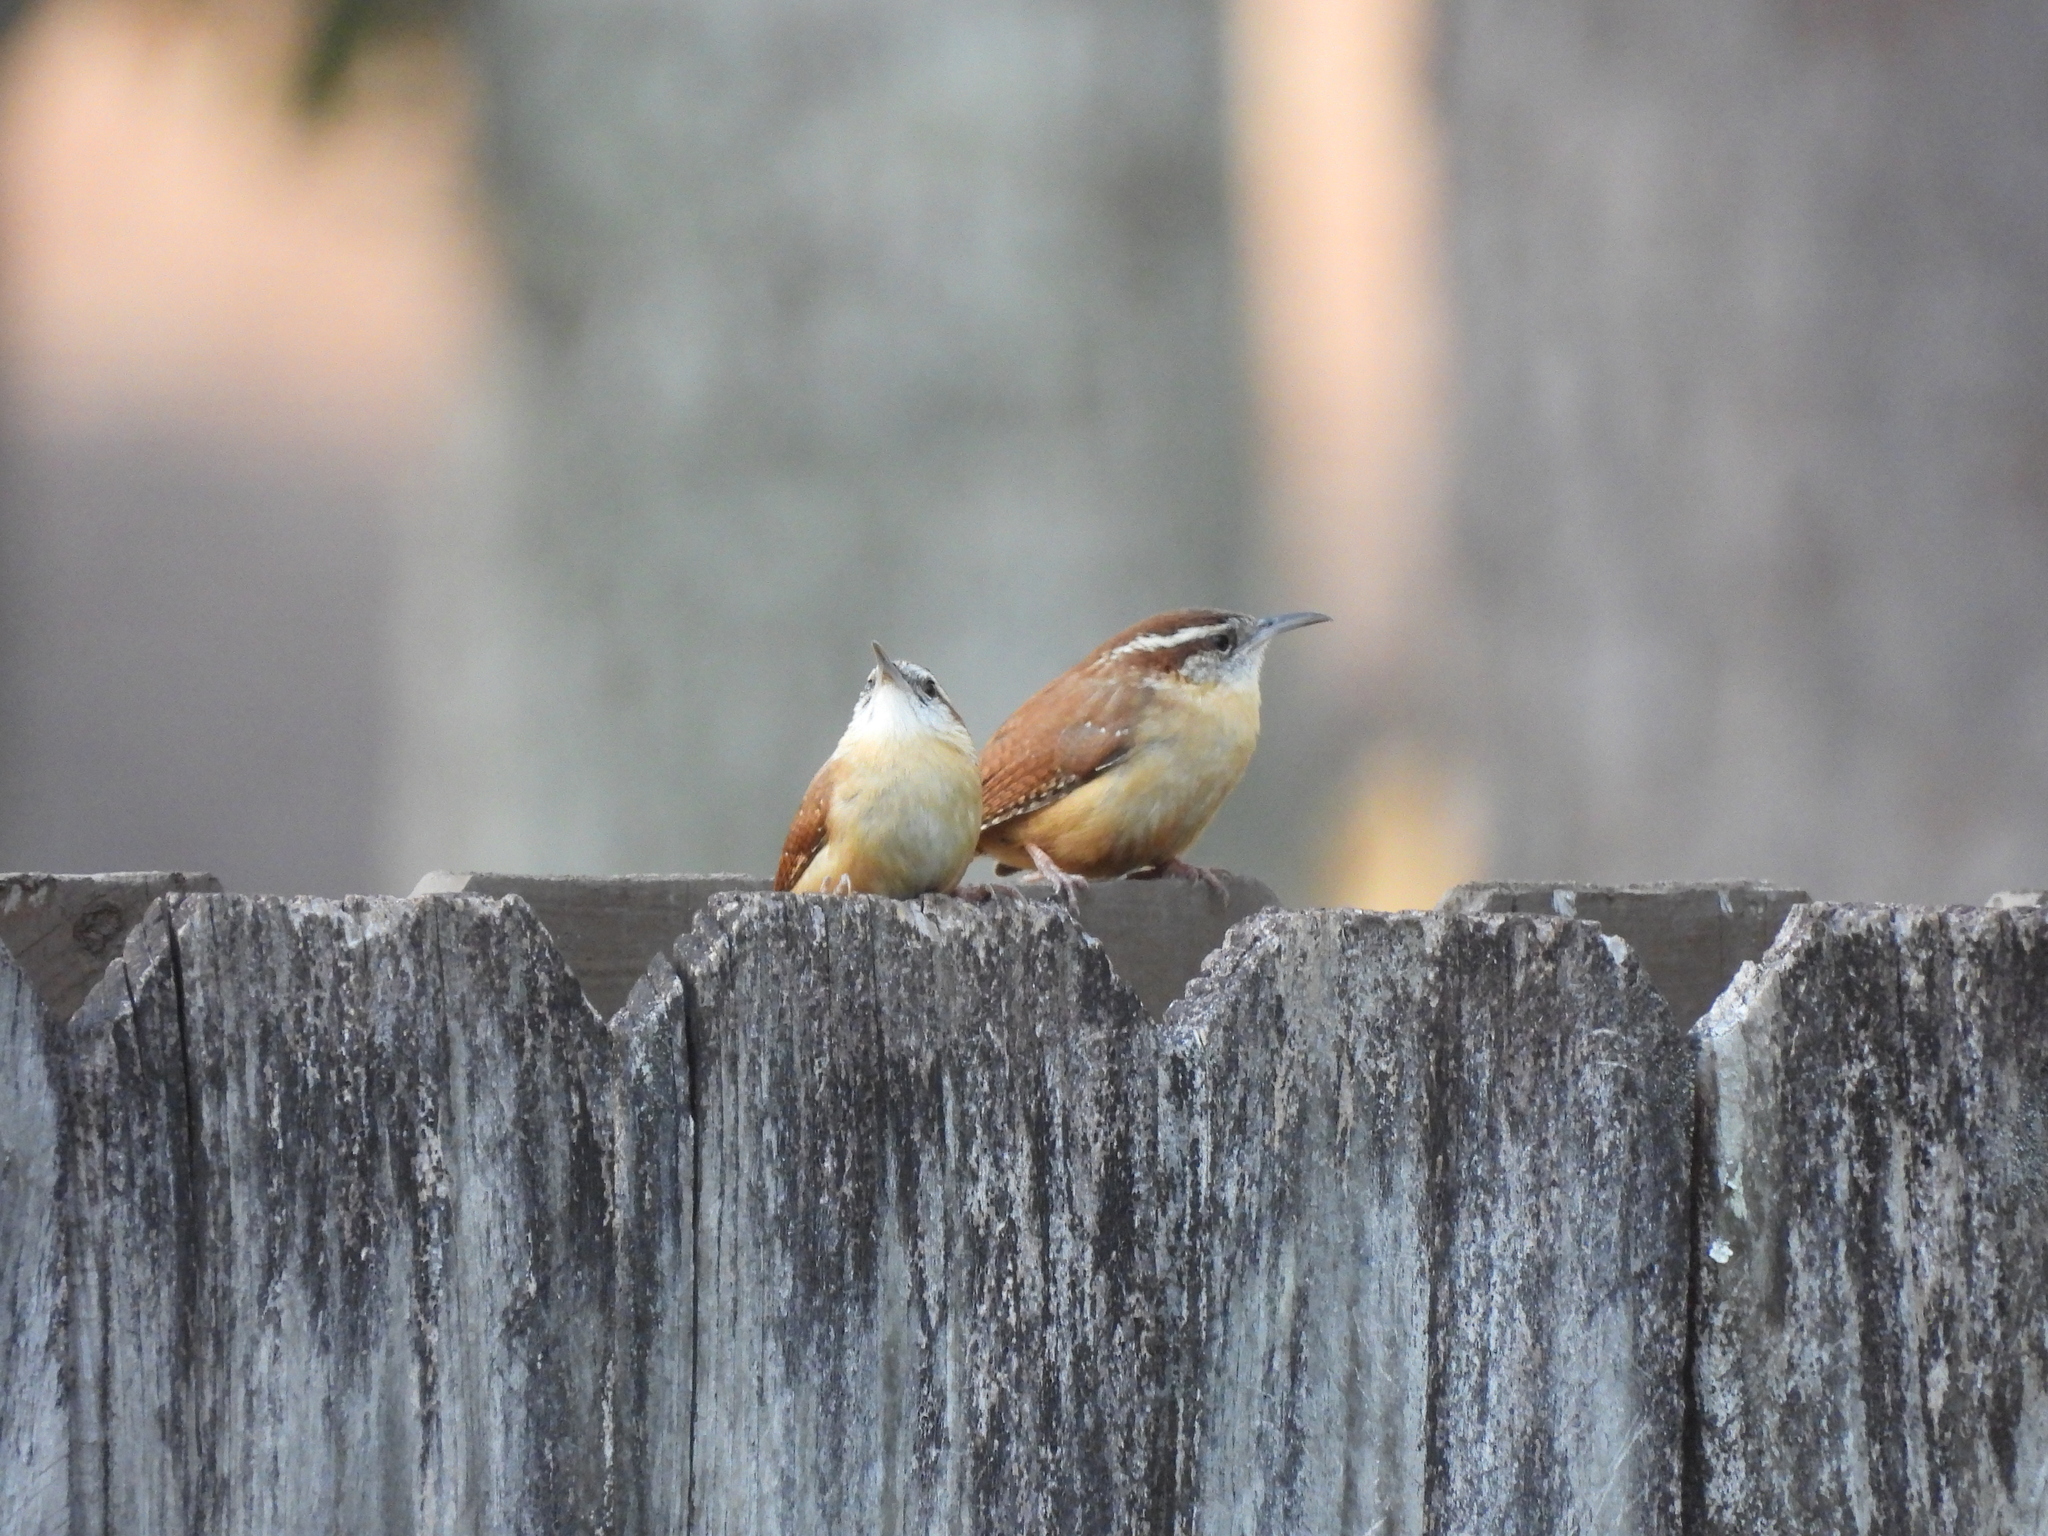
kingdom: Animalia
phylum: Chordata
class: Aves
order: Passeriformes
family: Troglodytidae
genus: Thryothorus
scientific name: Thryothorus ludovicianus
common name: Carolina wren
